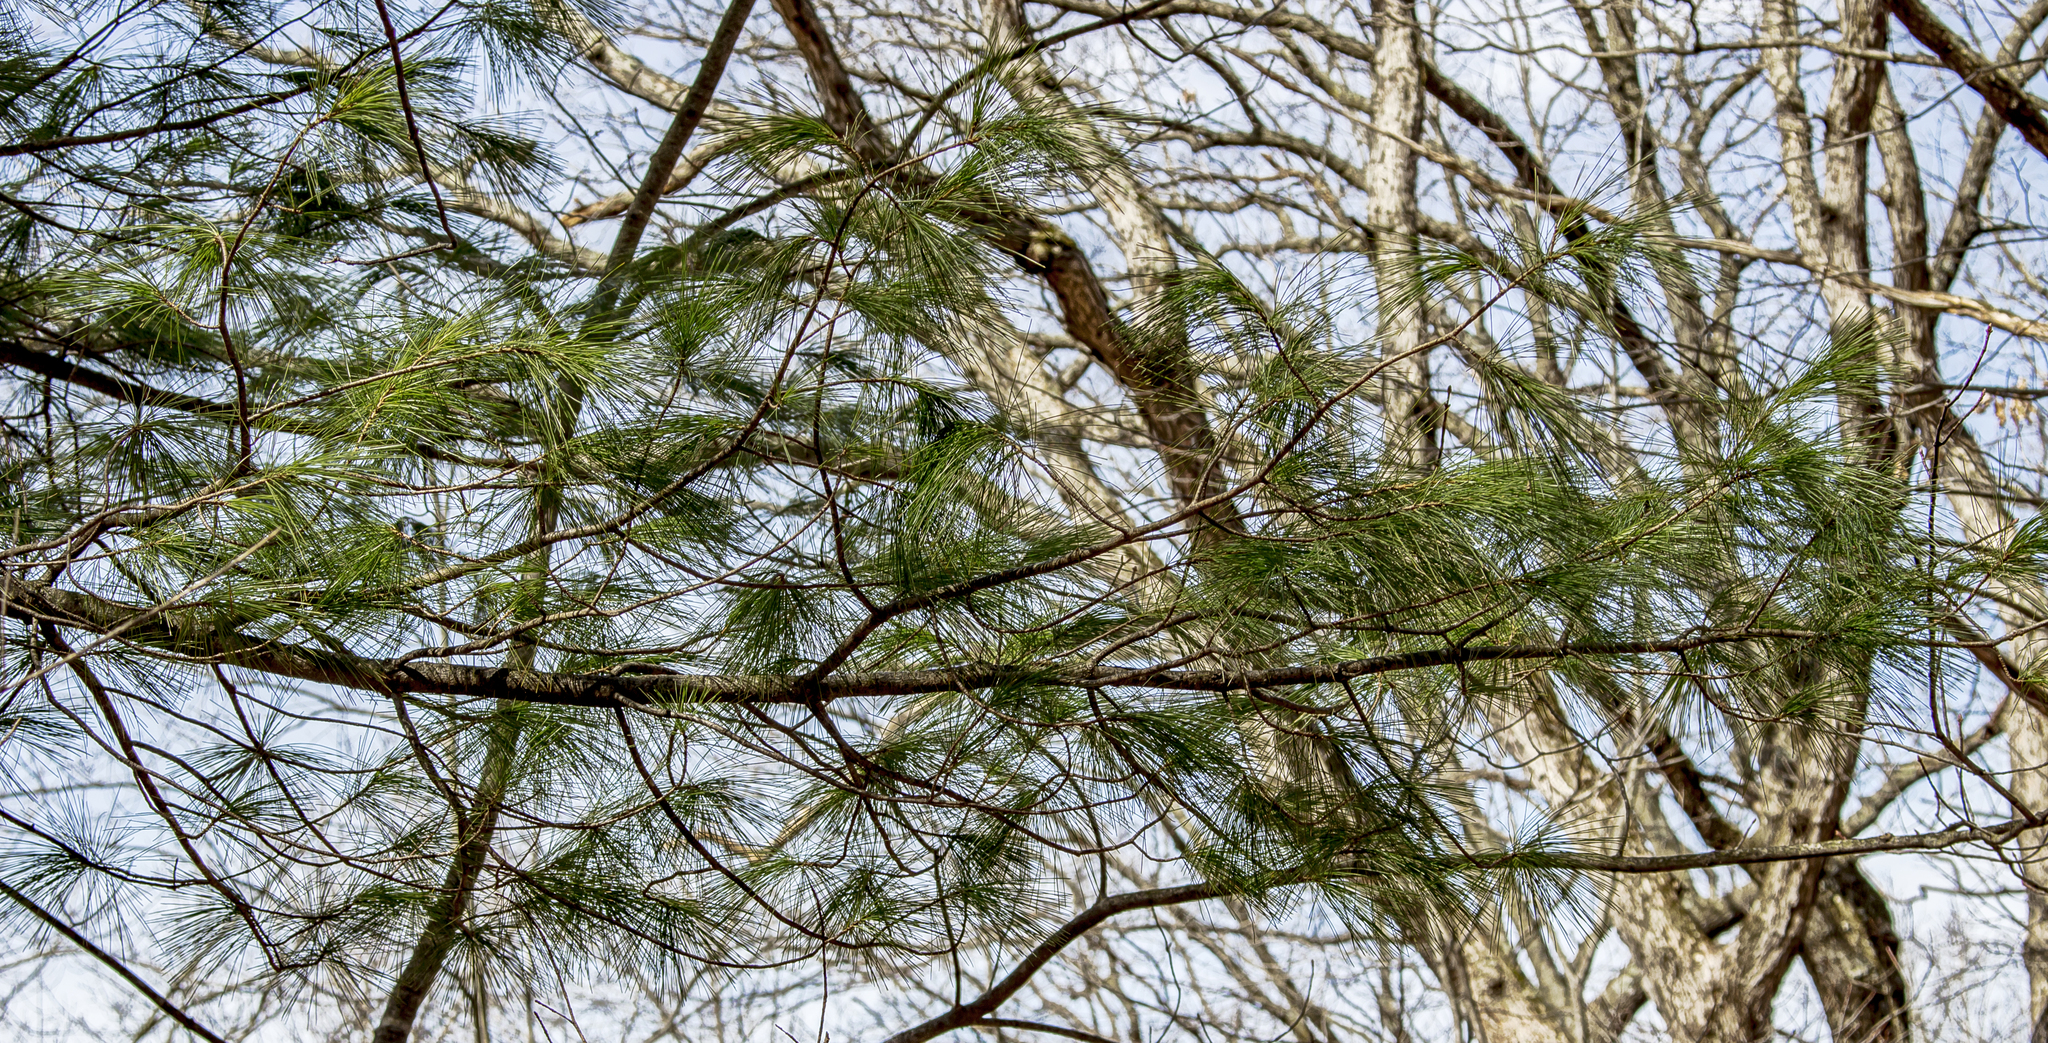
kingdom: Plantae
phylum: Tracheophyta
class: Pinopsida
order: Pinales
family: Pinaceae
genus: Pinus
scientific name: Pinus strobus
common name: Weymouth pine
